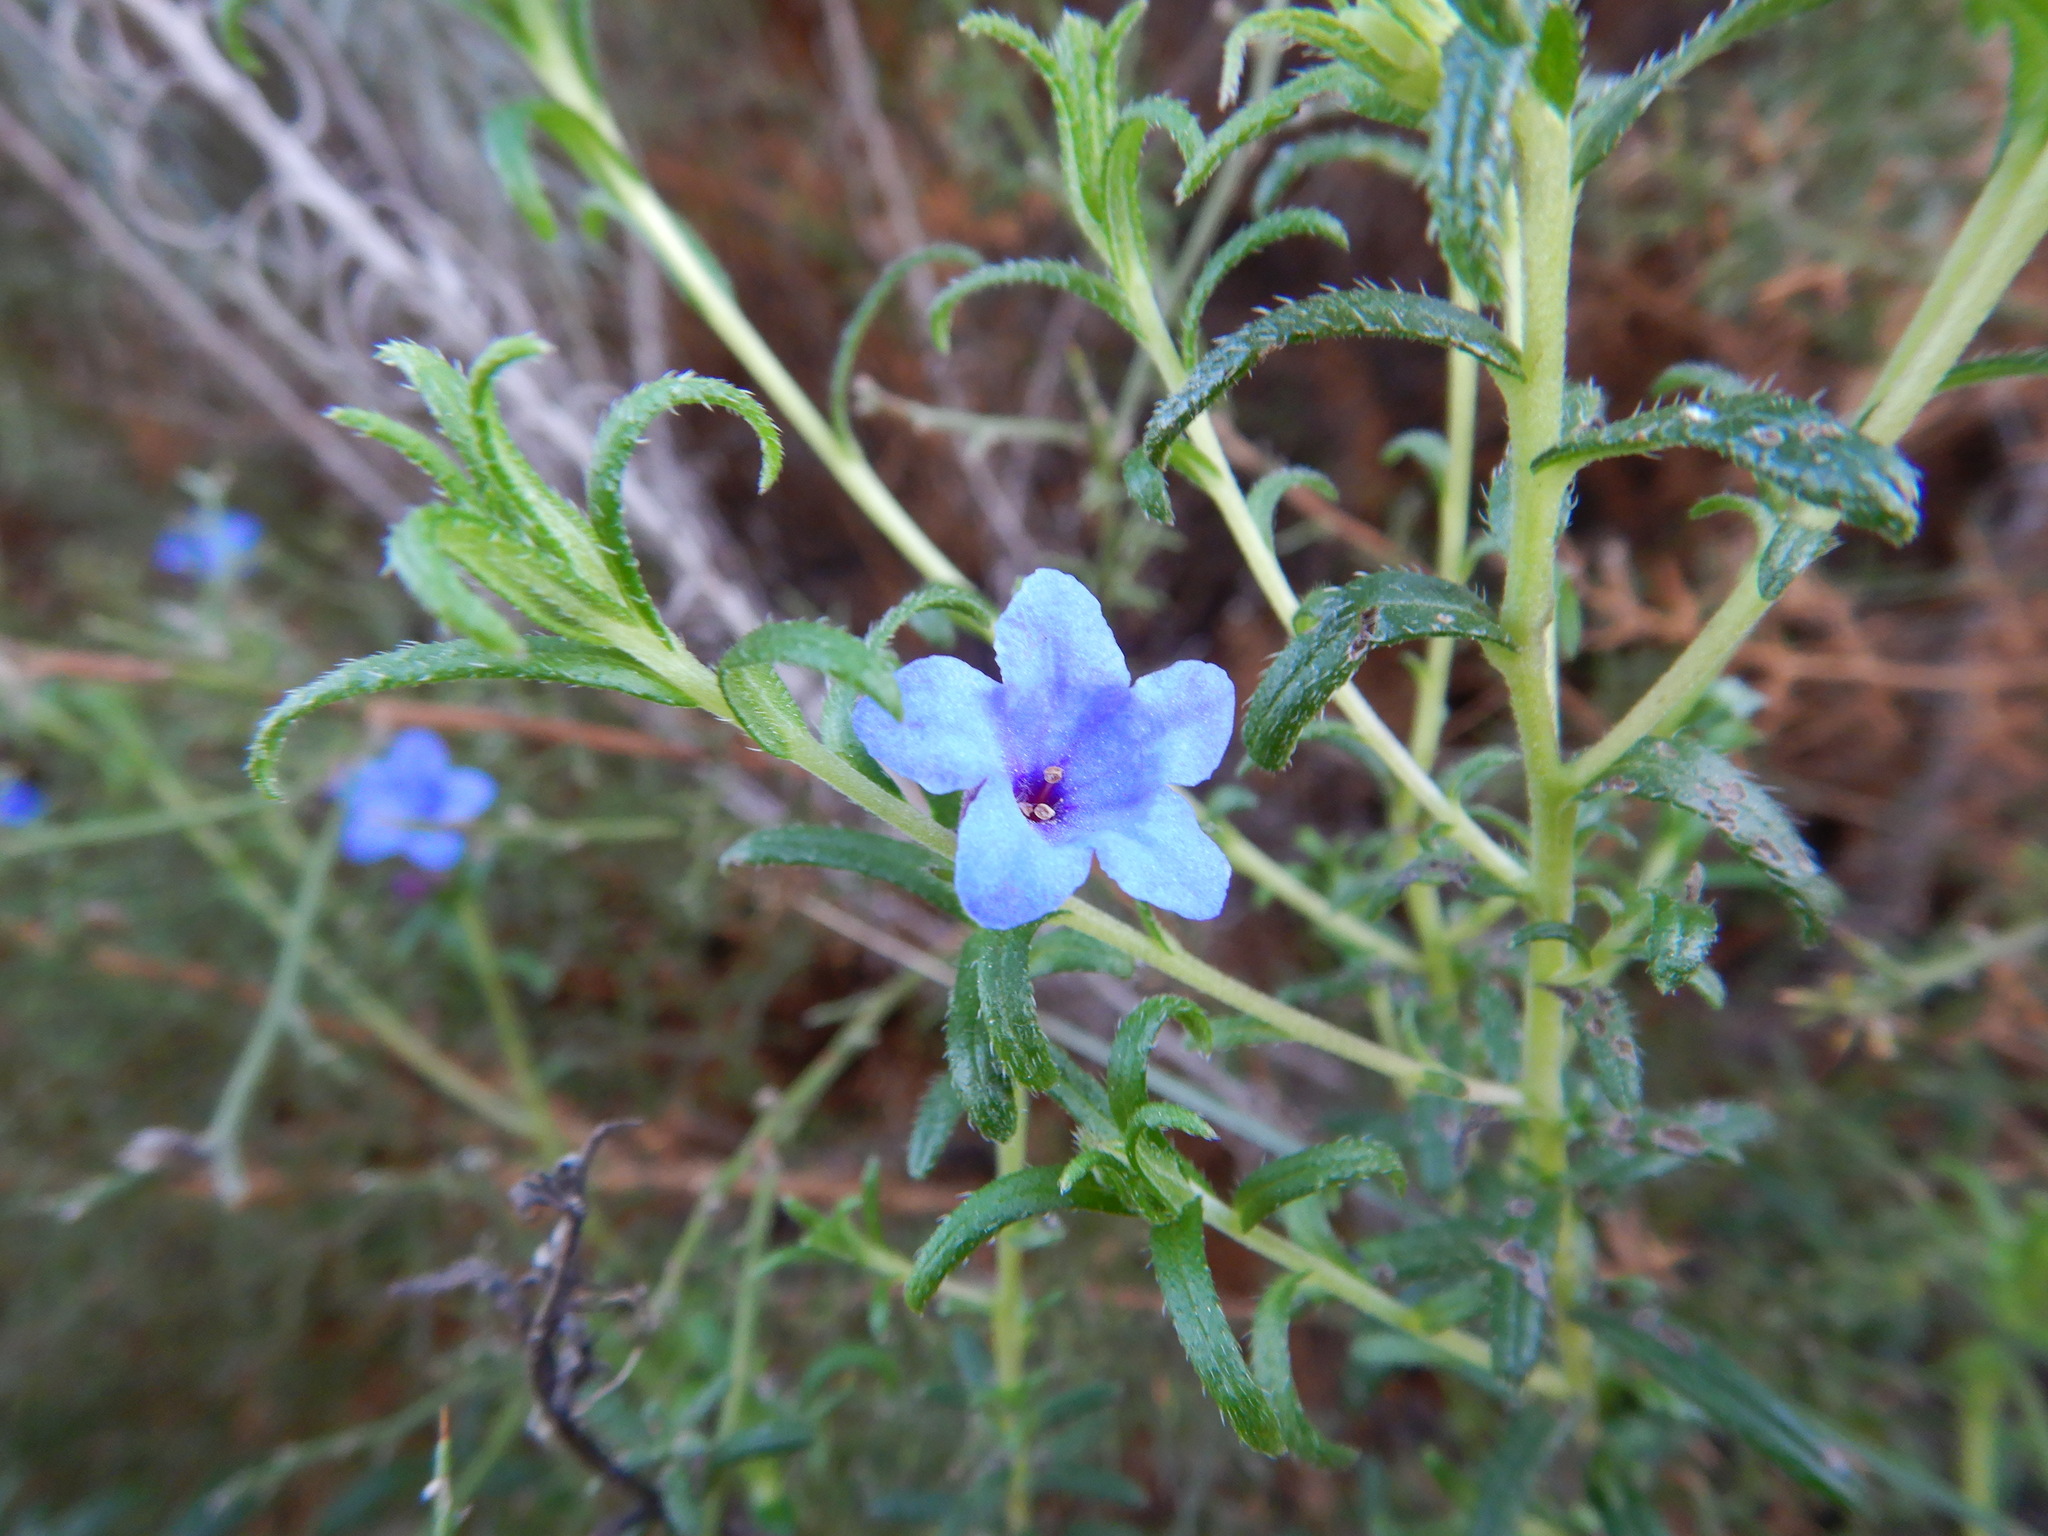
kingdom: Plantae
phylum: Tracheophyta
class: Magnoliopsida
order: Boraginales
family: Boraginaceae
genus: Glandora
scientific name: Glandora prostrata
